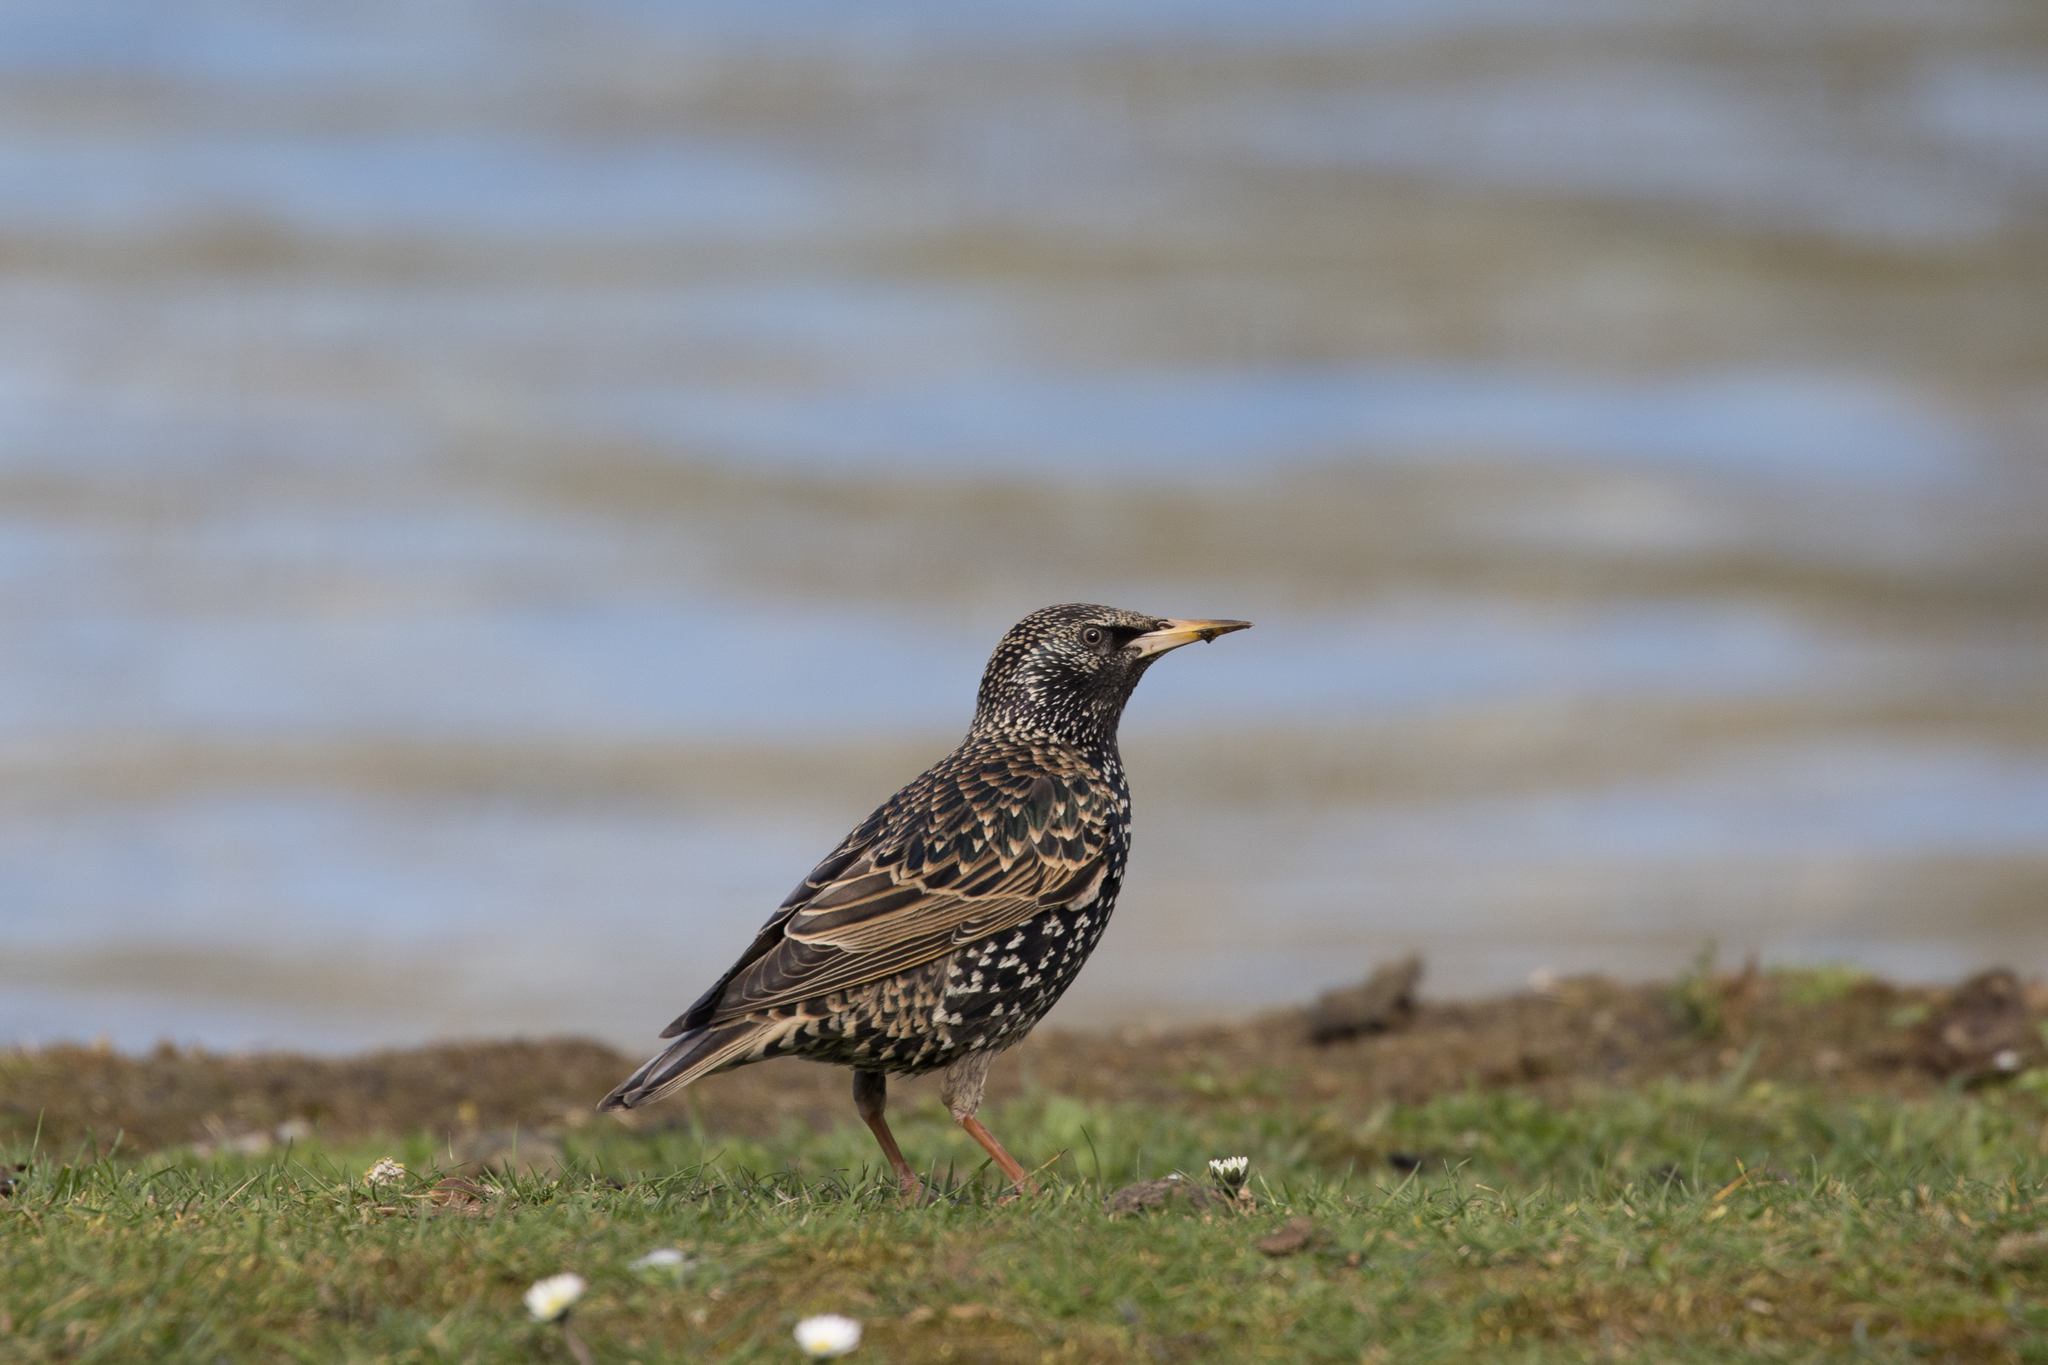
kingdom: Animalia
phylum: Chordata
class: Aves
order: Passeriformes
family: Sturnidae
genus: Sturnus
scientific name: Sturnus vulgaris
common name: Common starling
